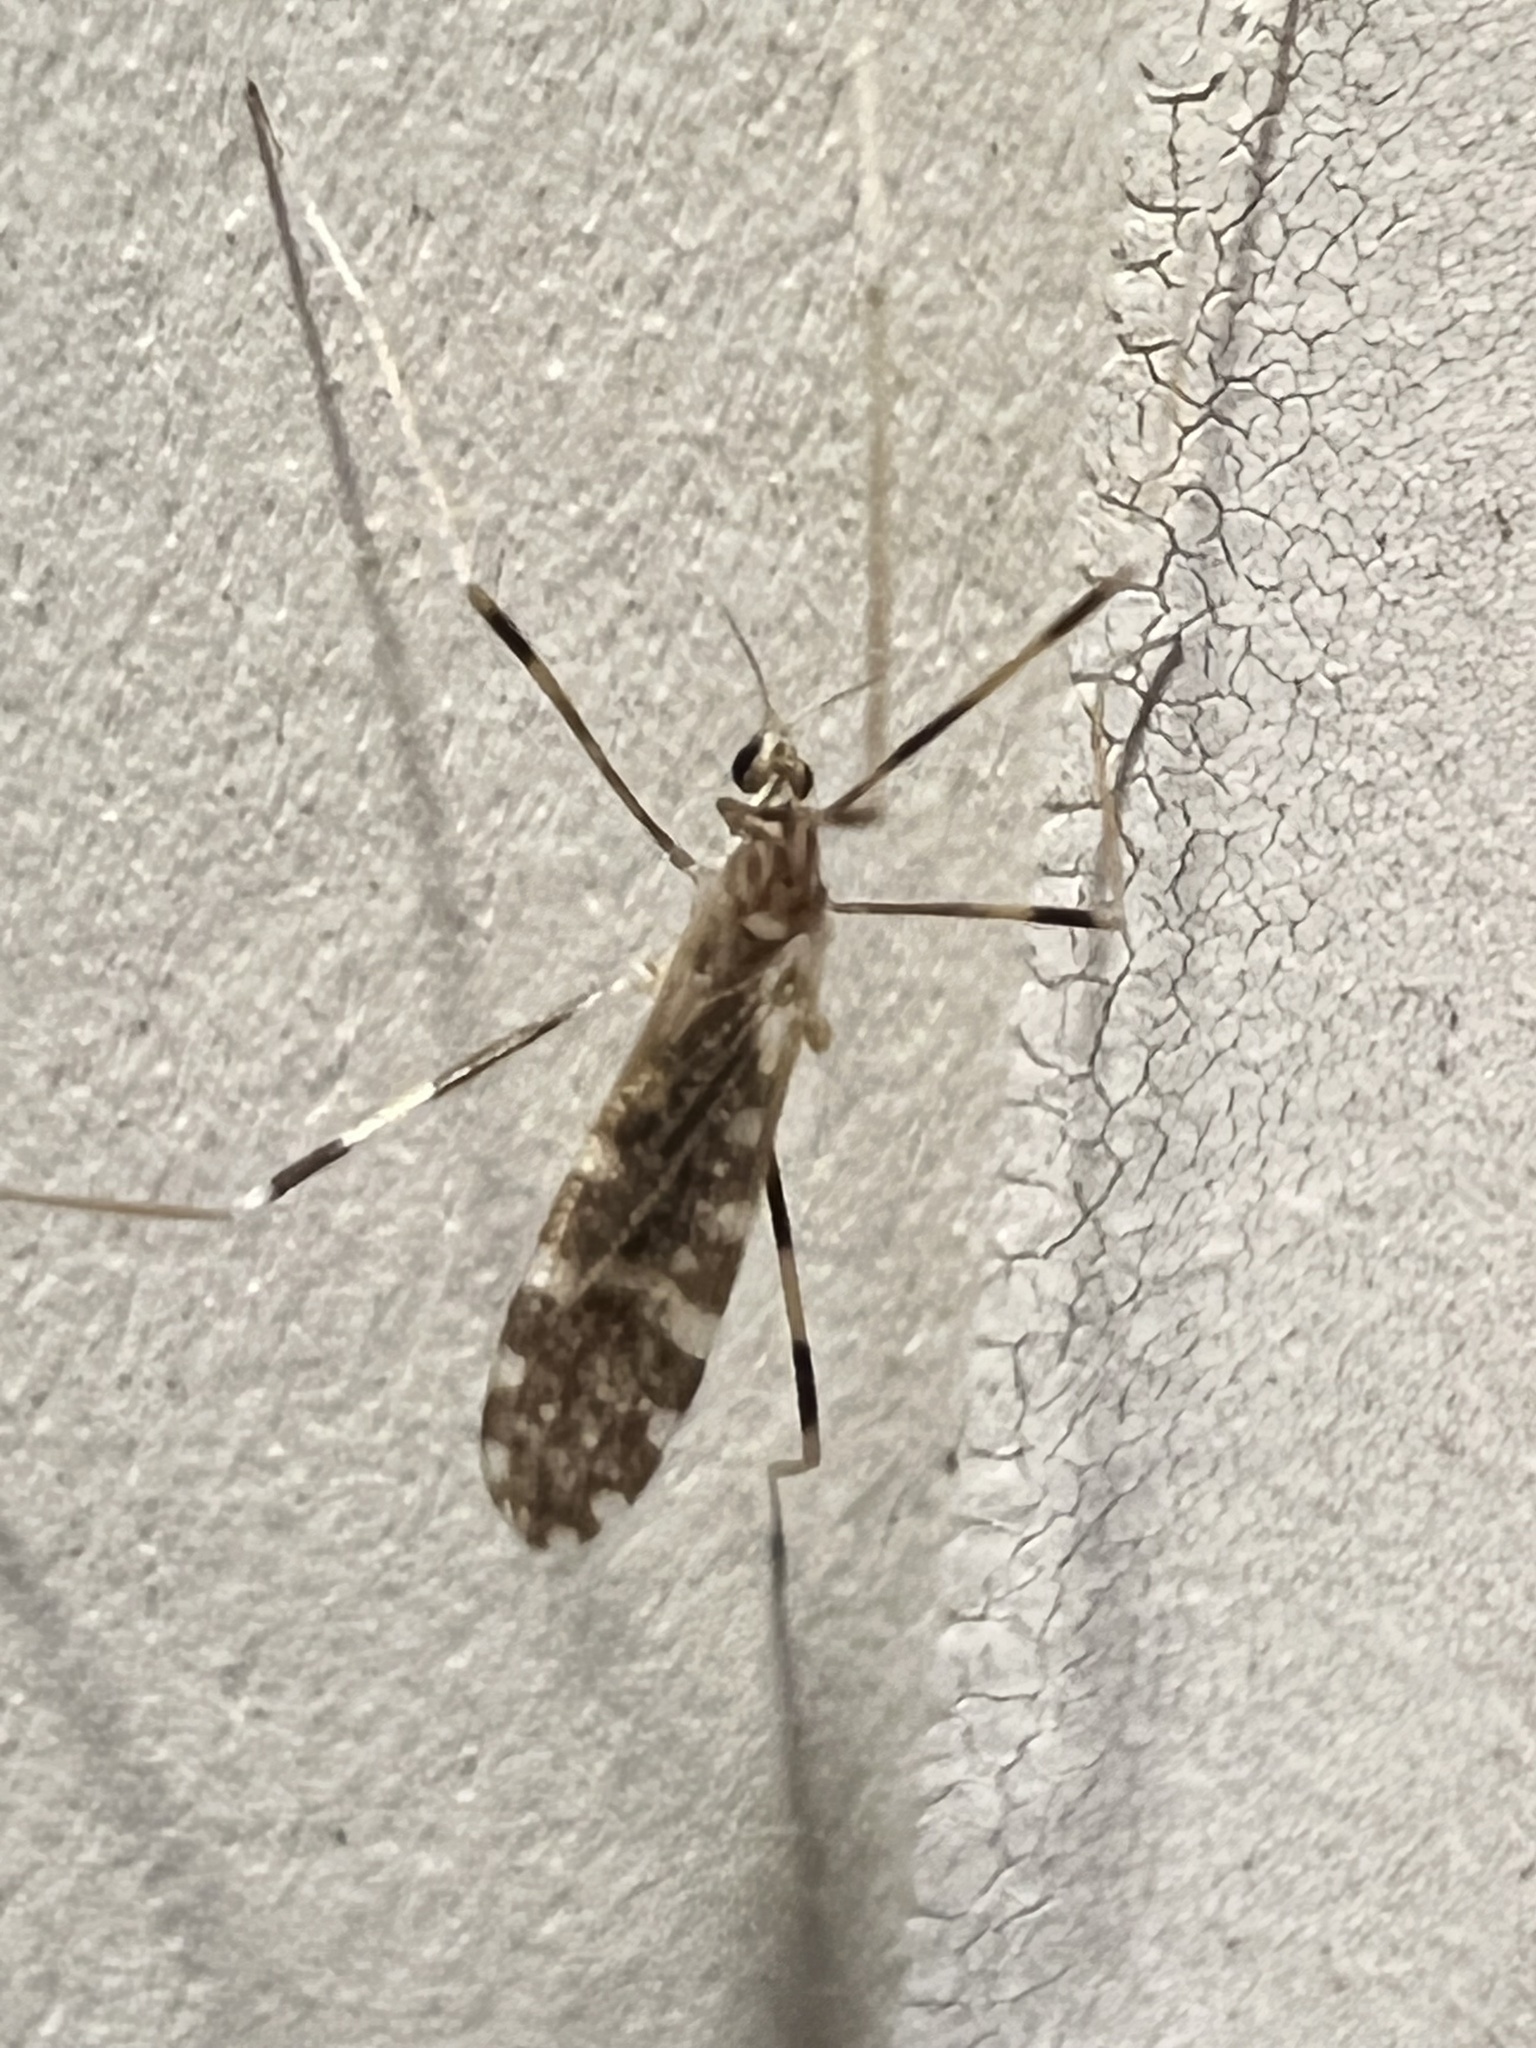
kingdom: Animalia
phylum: Arthropoda
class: Insecta
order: Diptera
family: Limoniidae
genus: Erioptera
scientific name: Erioptera caliptera
